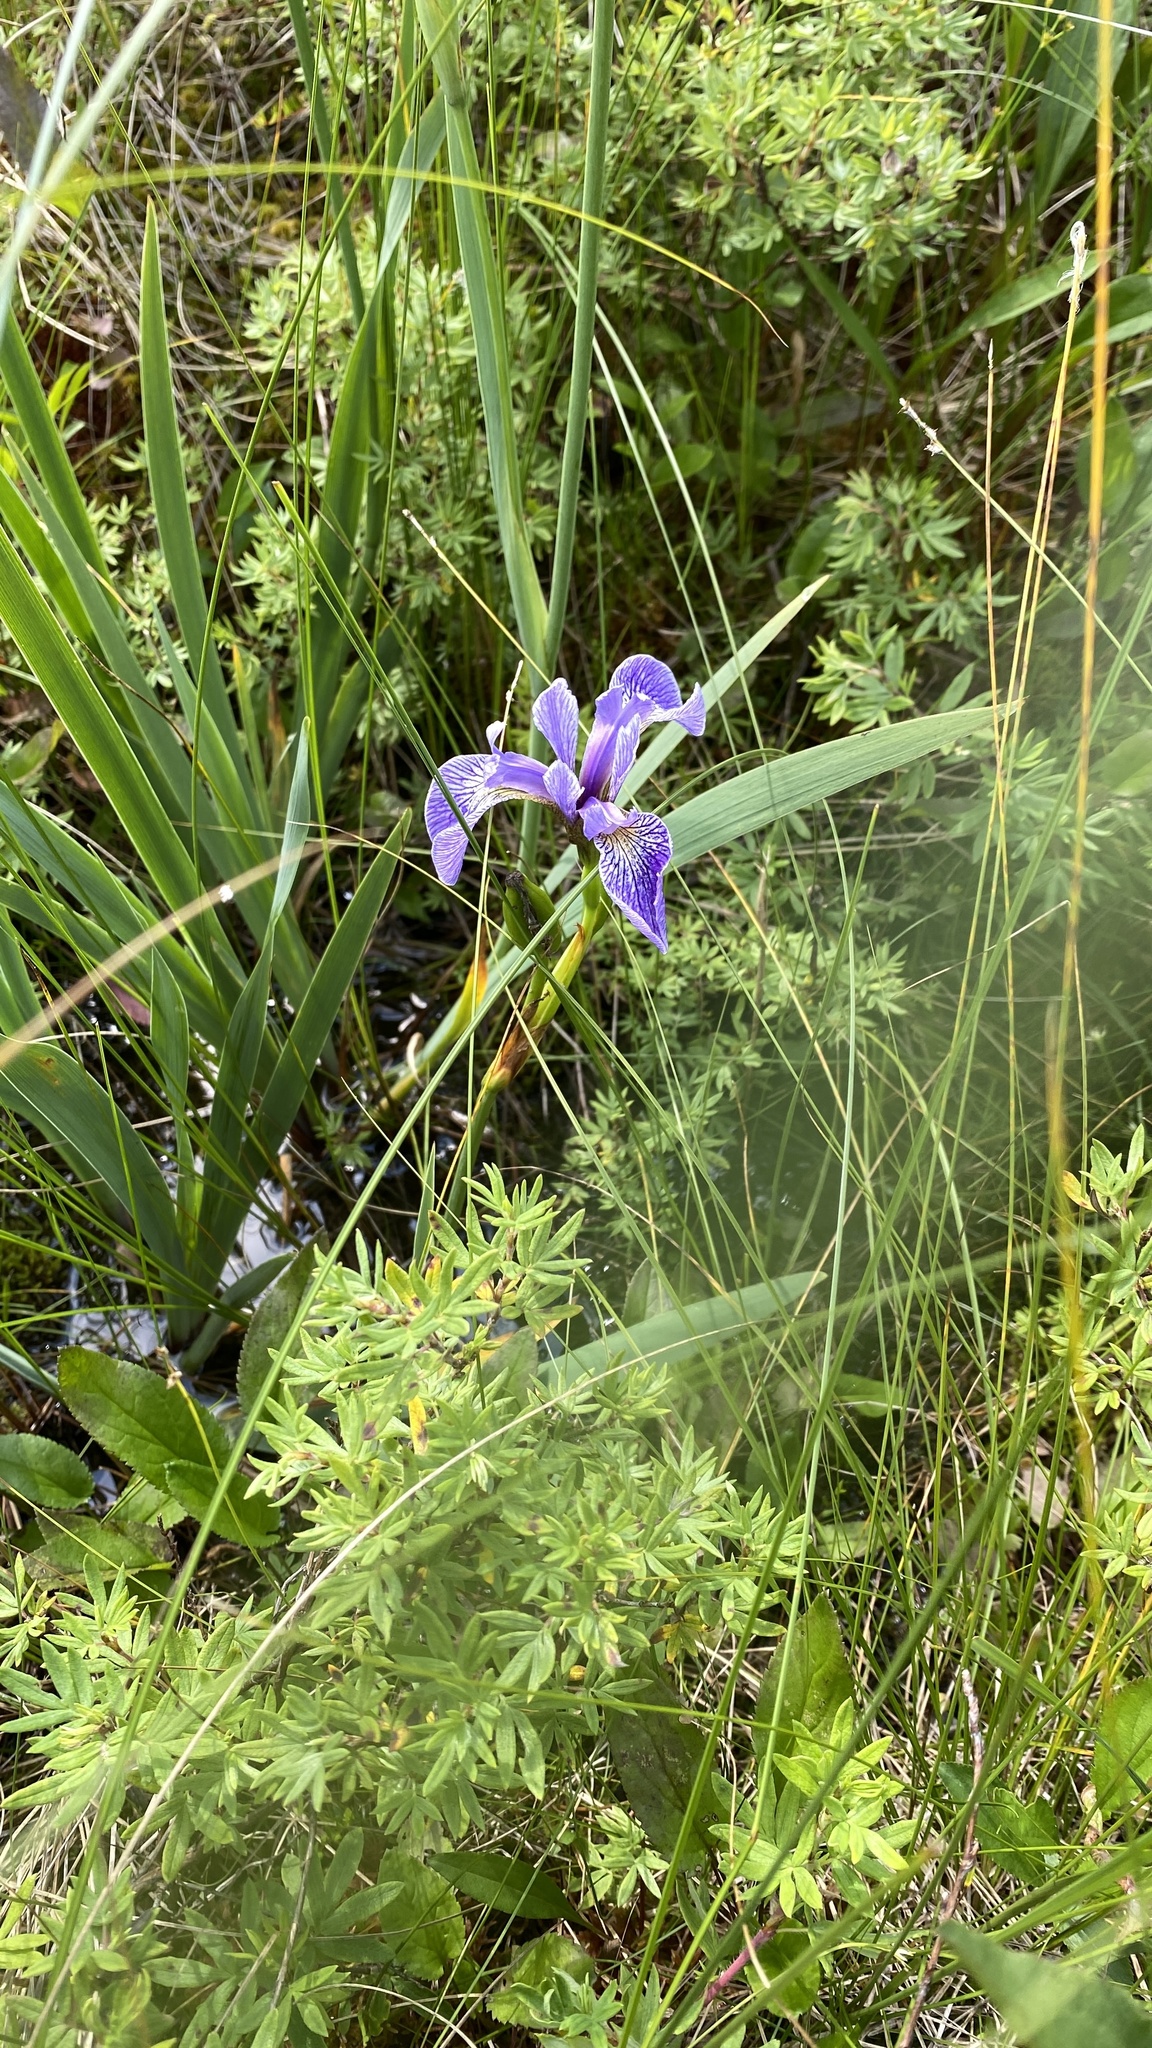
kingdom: Plantae
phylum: Tracheophyta
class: Liliopsida
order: Asparagales
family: Iridaceae
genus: Iris
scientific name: Iris versicolor
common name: Purple iris
